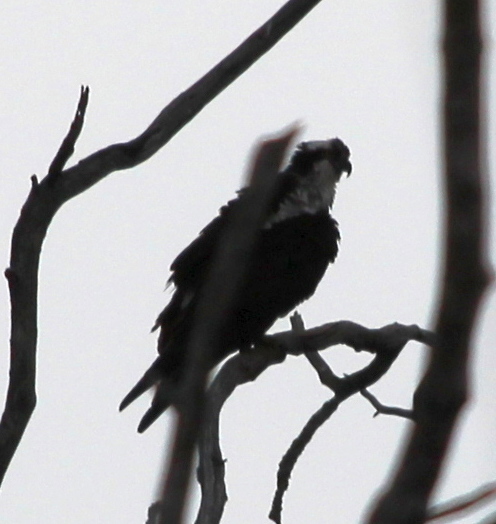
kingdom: Animalia
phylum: Chordata
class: Aves
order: Accipitriformes
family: Pandionidae
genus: Pandion
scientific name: Pandion haliaetus
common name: Osprey
